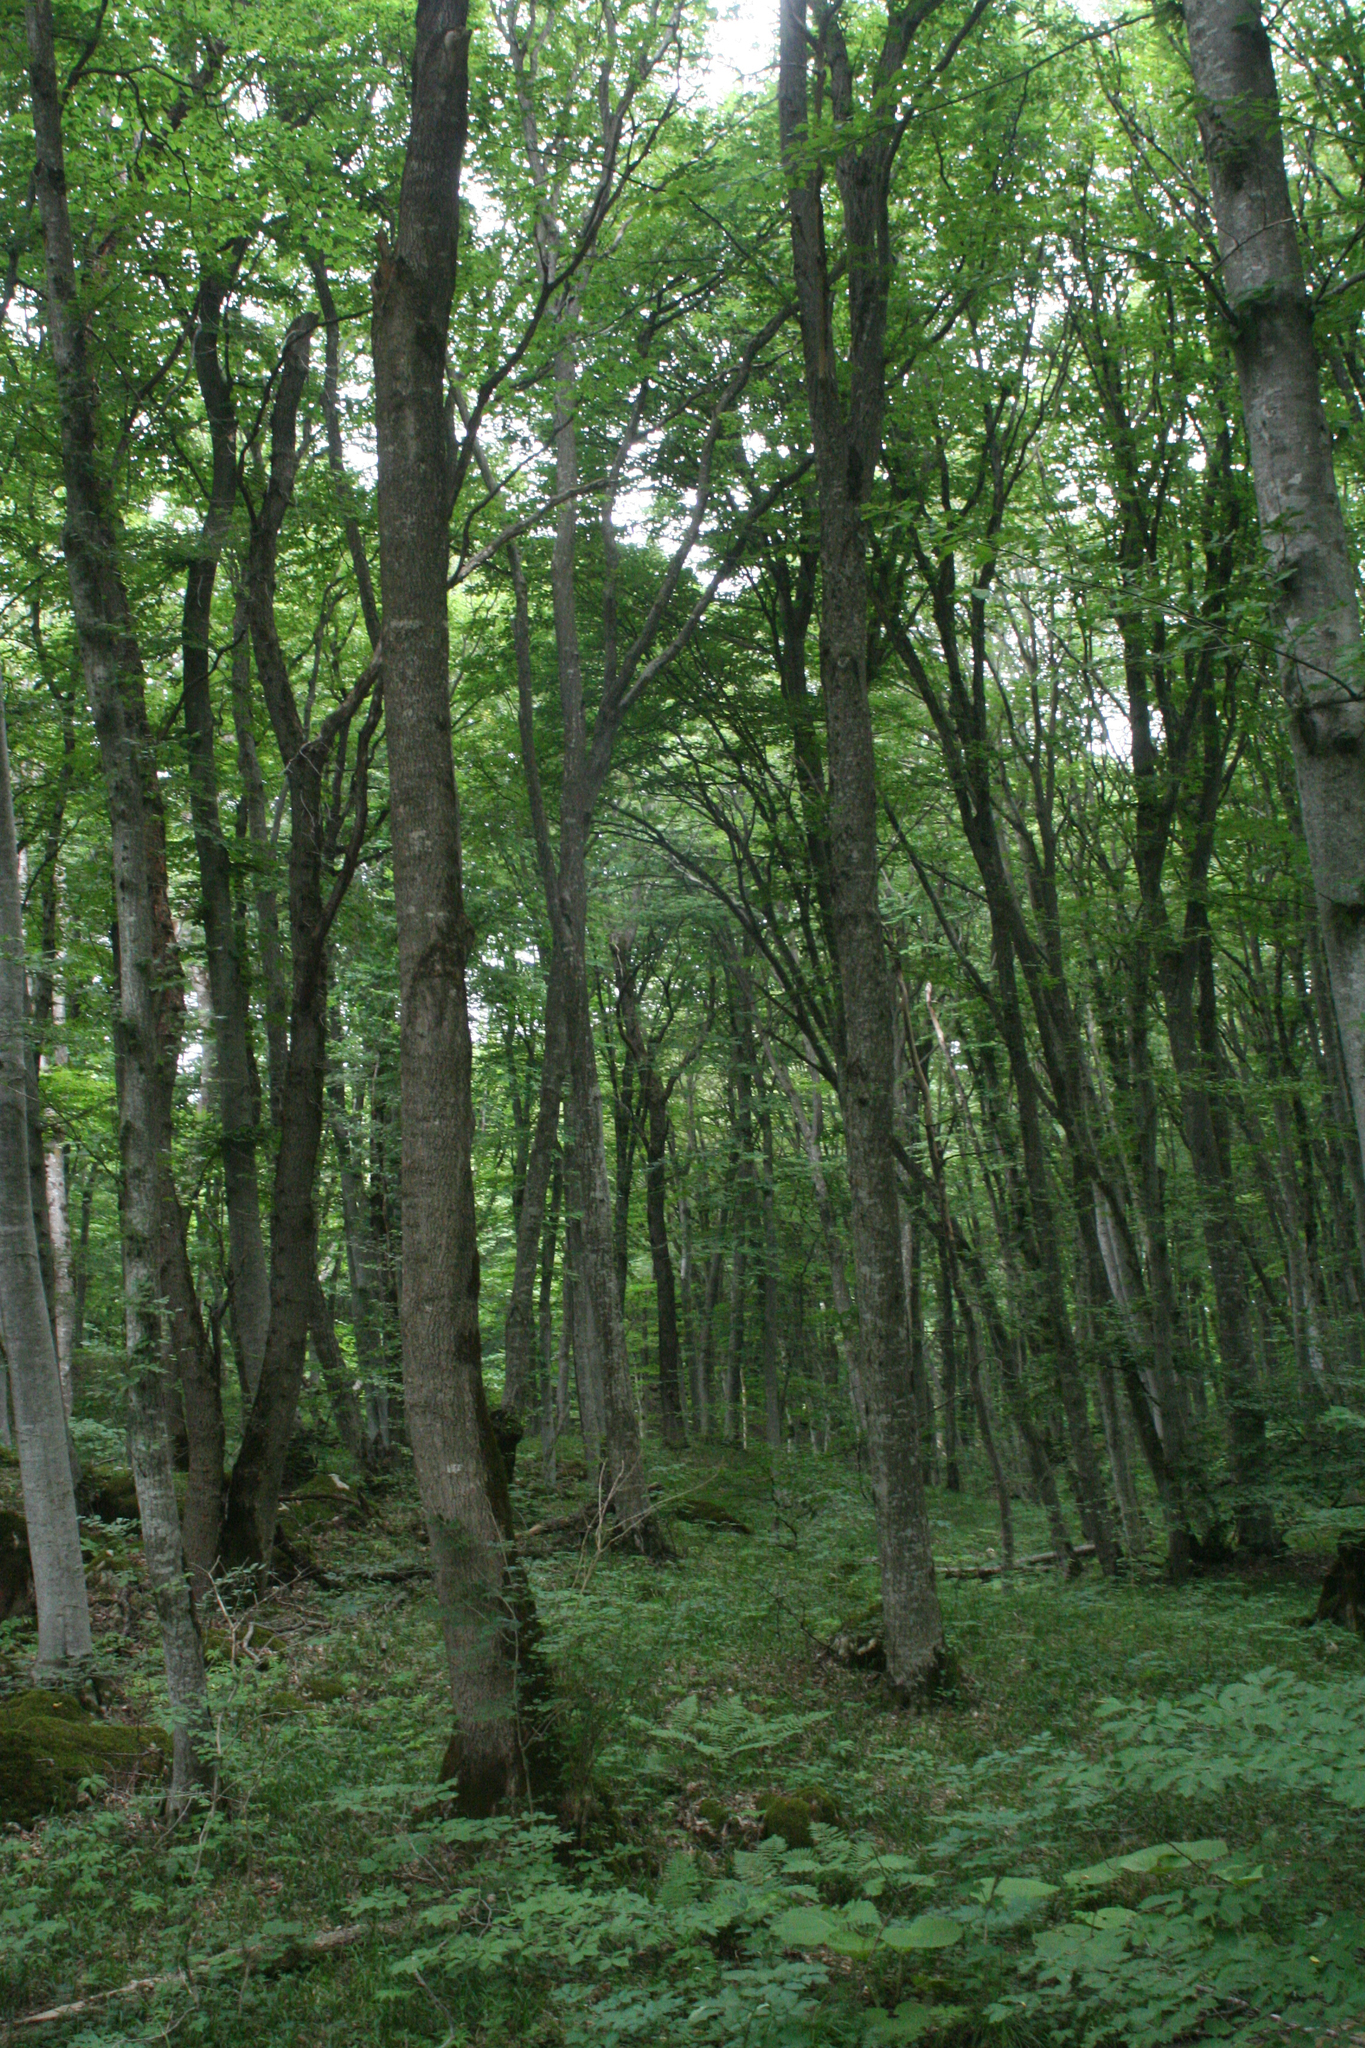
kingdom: Plantae
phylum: Tracheophyta
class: Magnoliopsida
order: Fagales
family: Fagaceae
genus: Fagus
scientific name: Fagus orientalis
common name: Oriental beech
